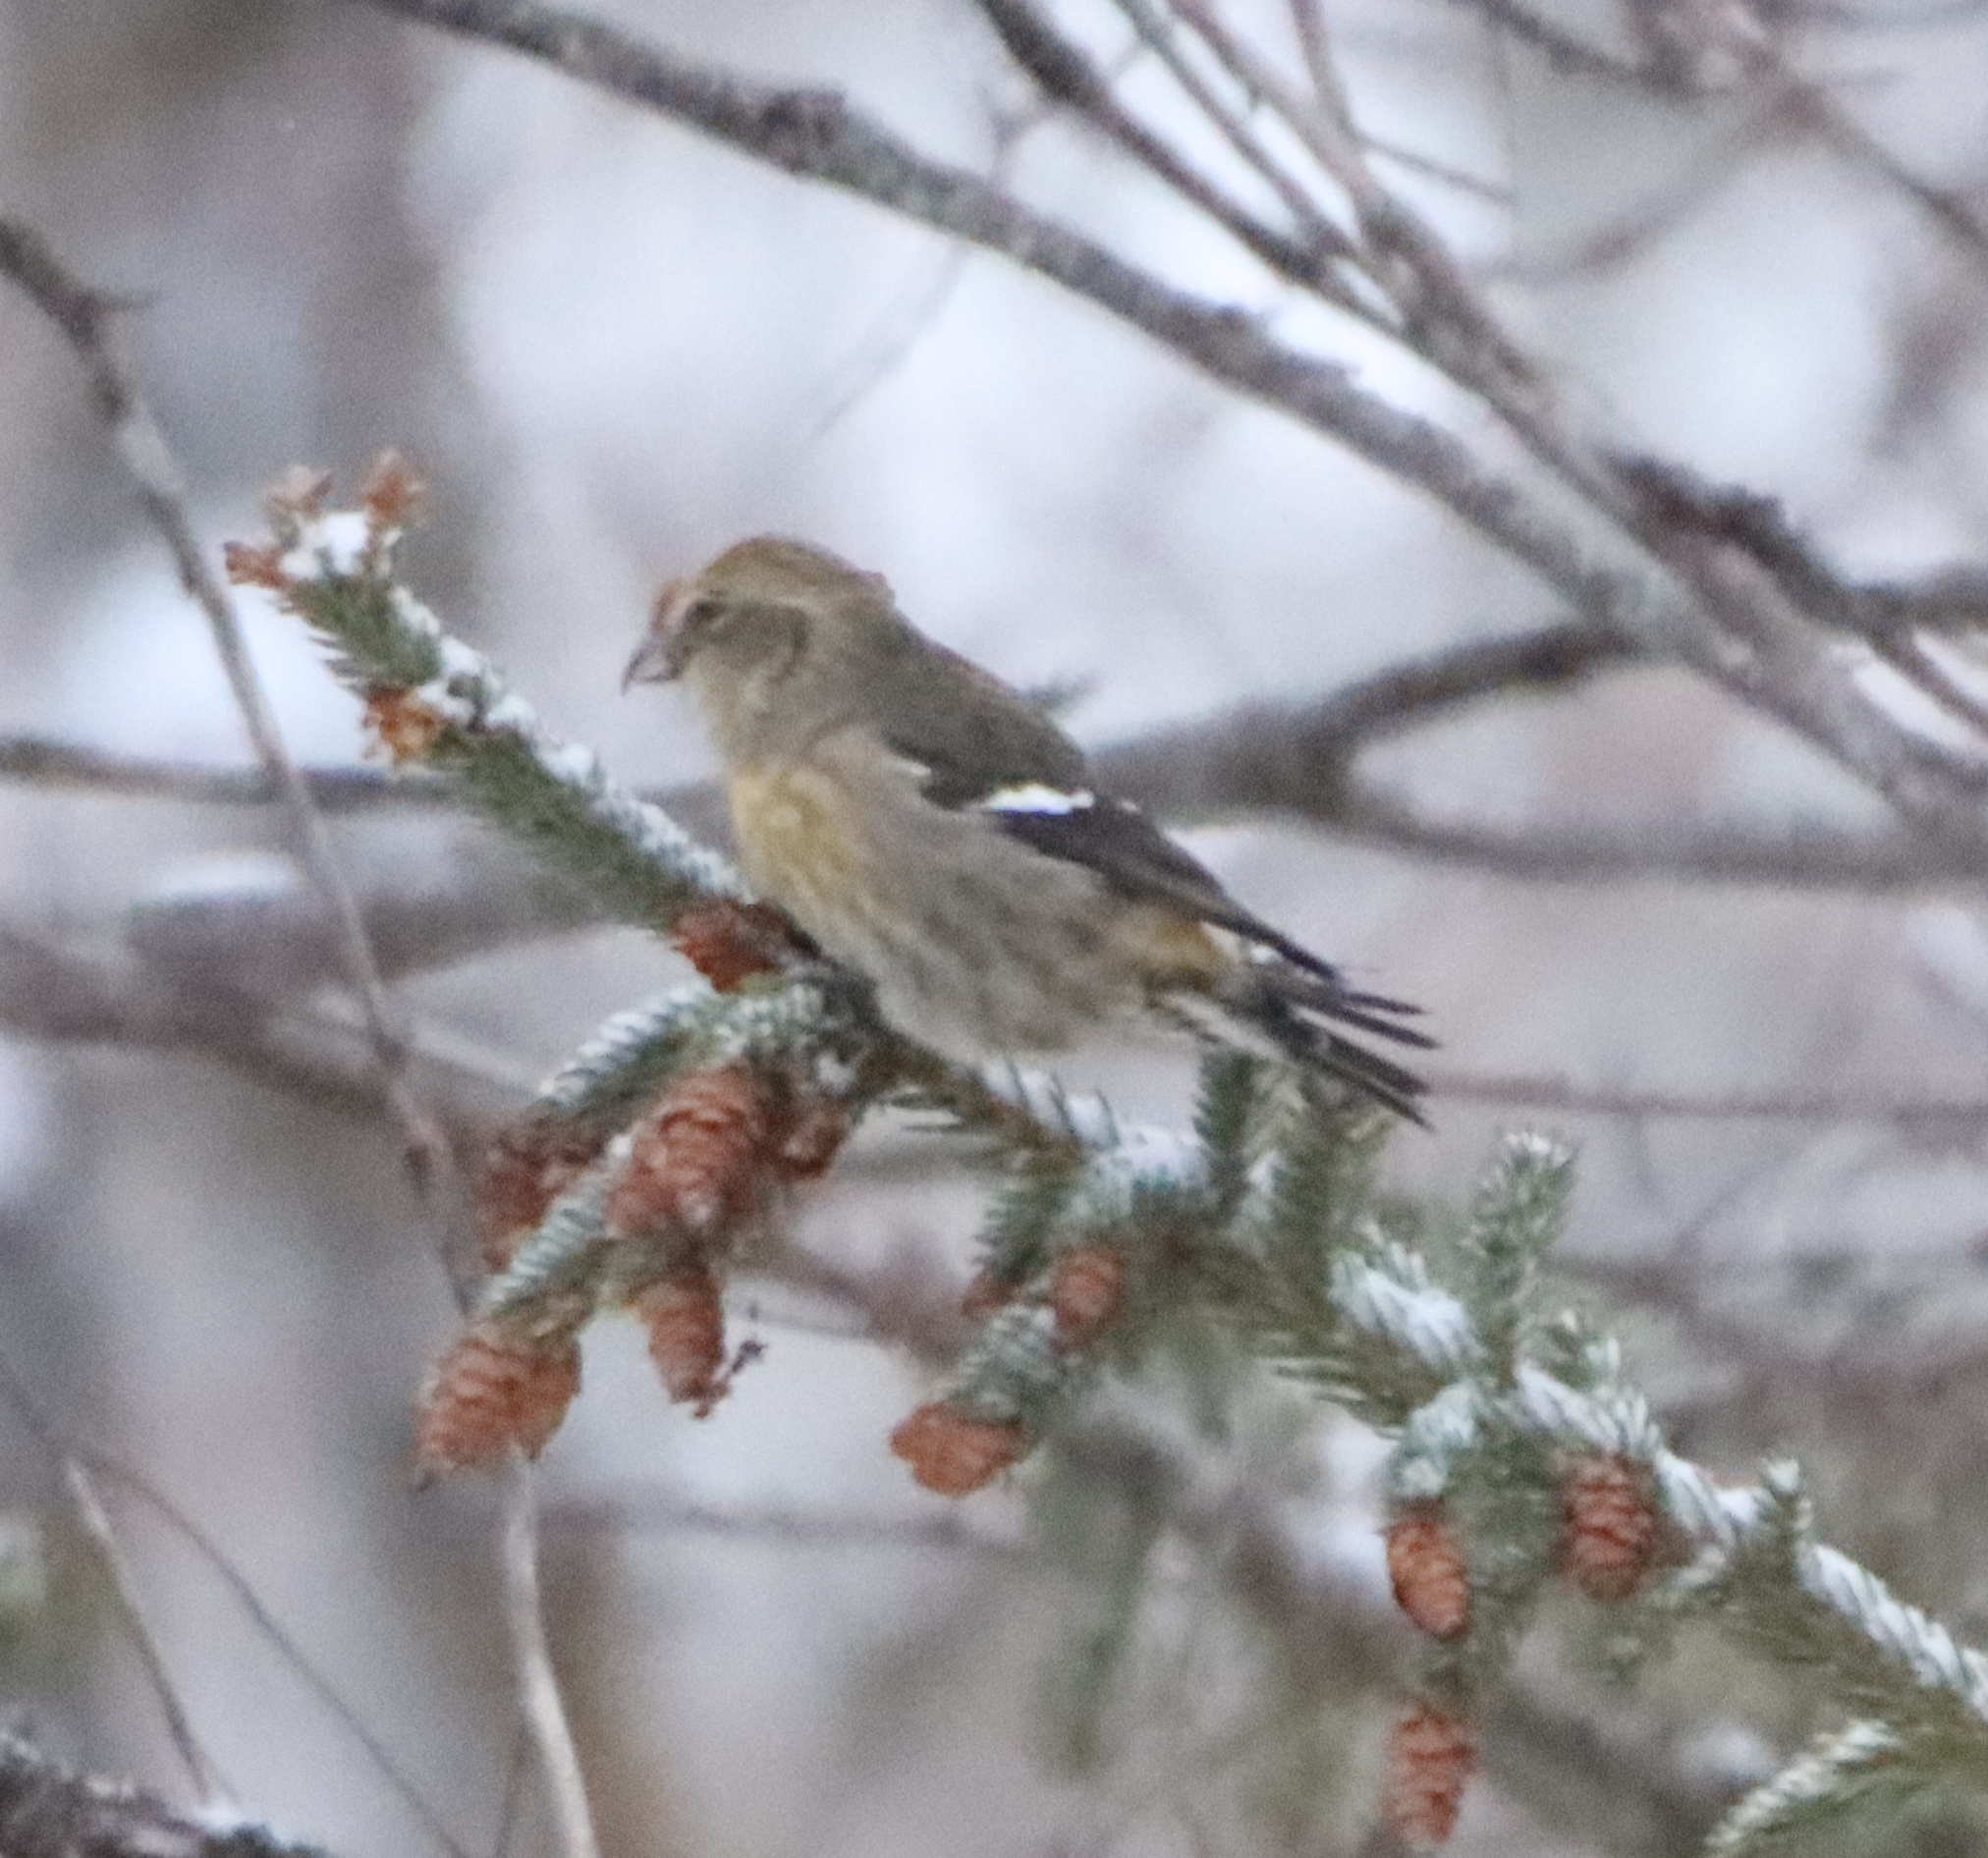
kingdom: Animalia
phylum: Chordata
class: Aves
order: Passeriformes
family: Fringillidae
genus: Loxia
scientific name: Loxia leucoptera
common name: Two-barred crossbill
